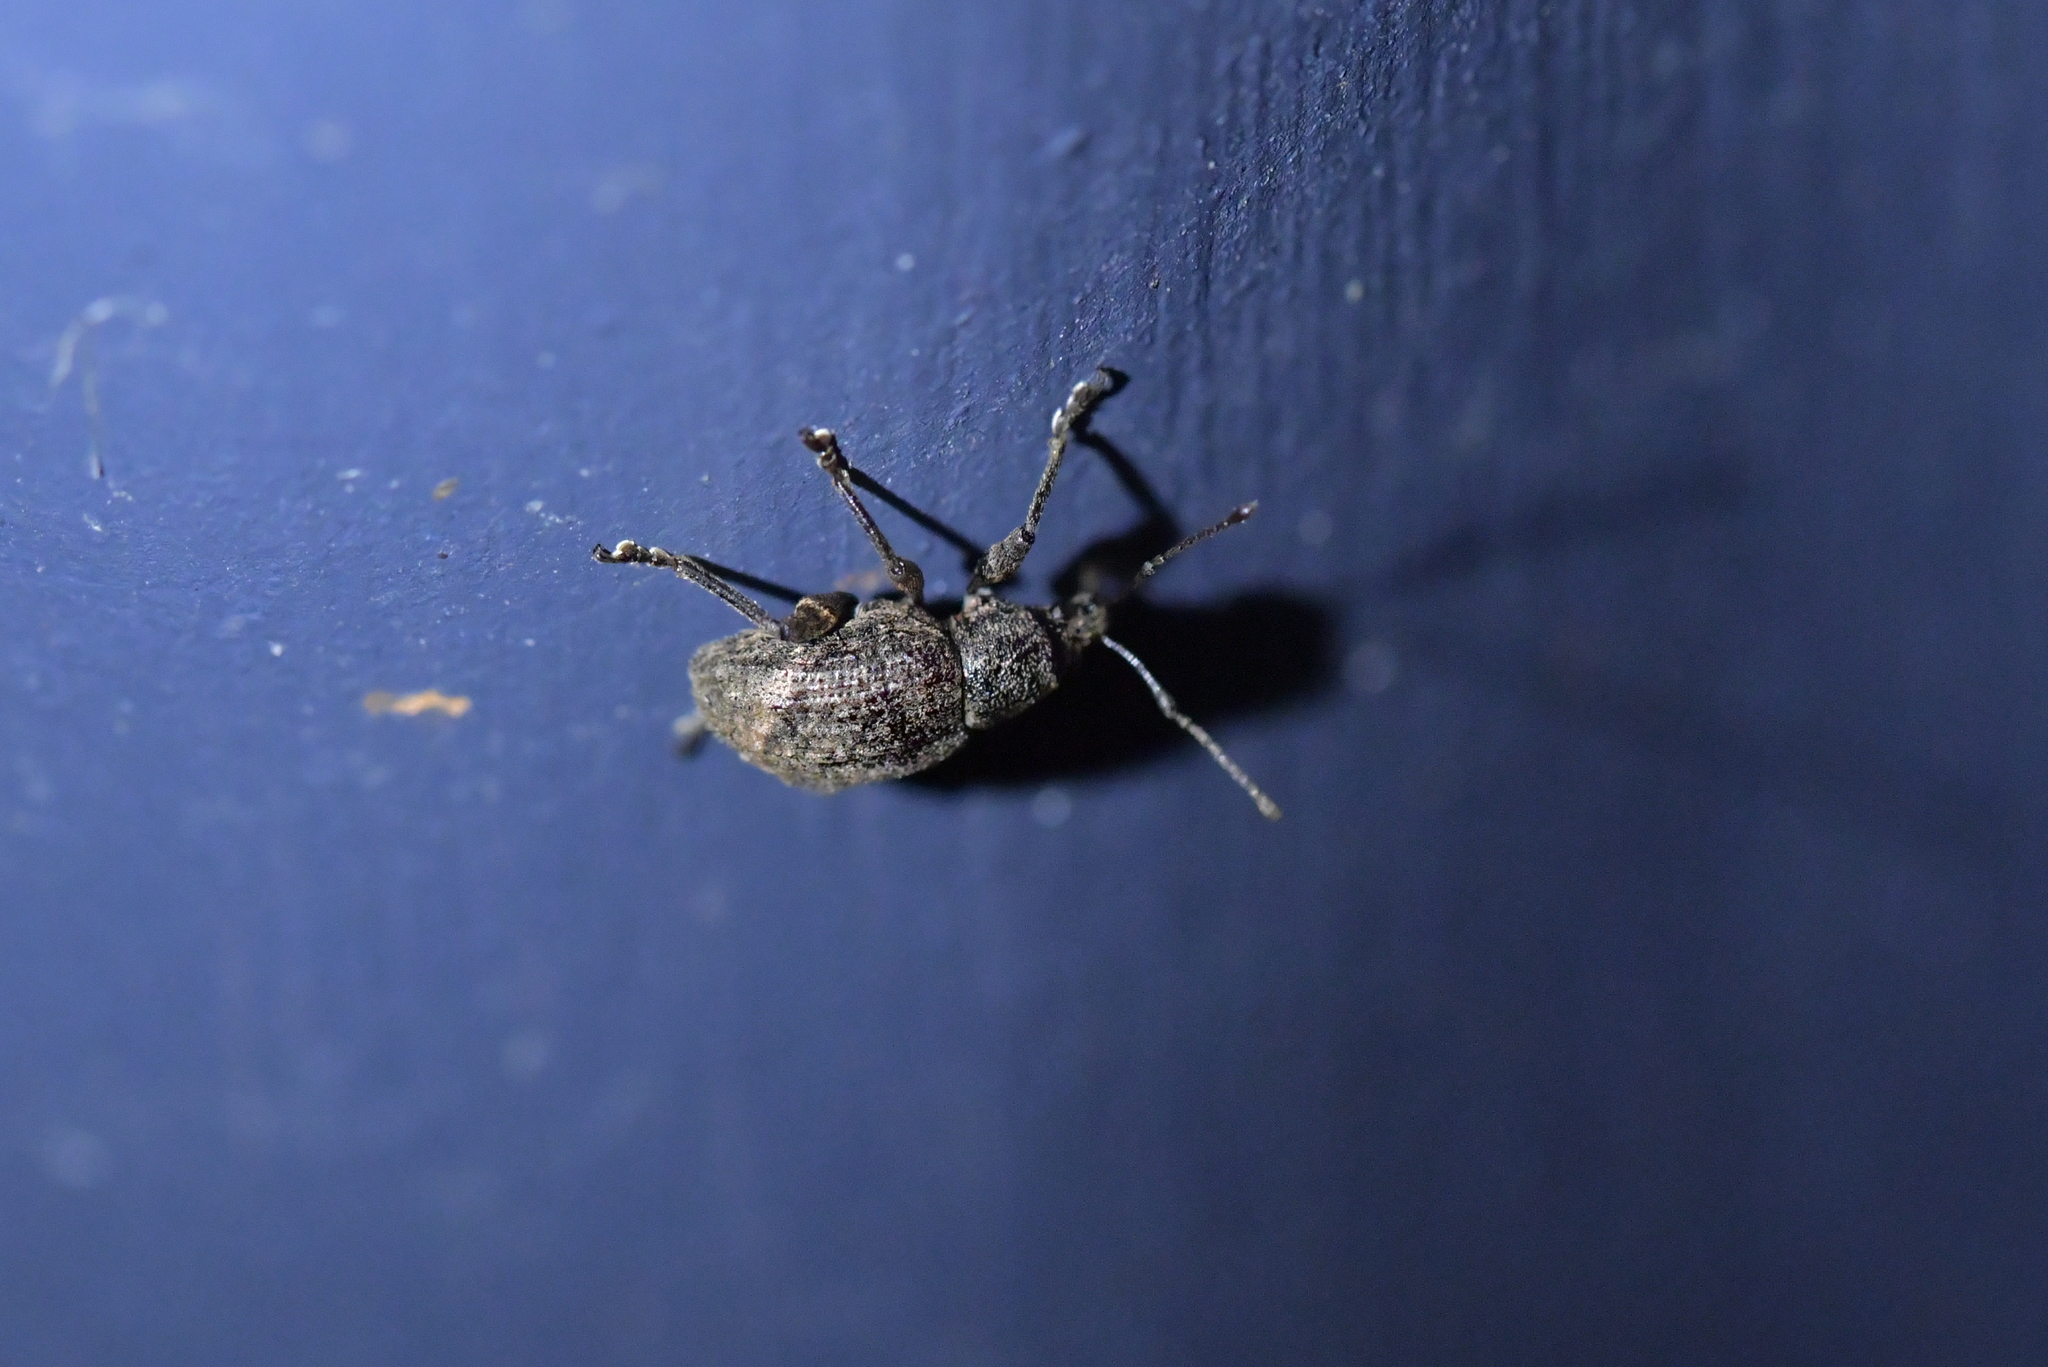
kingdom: Animalia
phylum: Arthropoda
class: Insecta
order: Coleoptera
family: Curculionidae
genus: Phlyctinus
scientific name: Phlyctinus callosus
